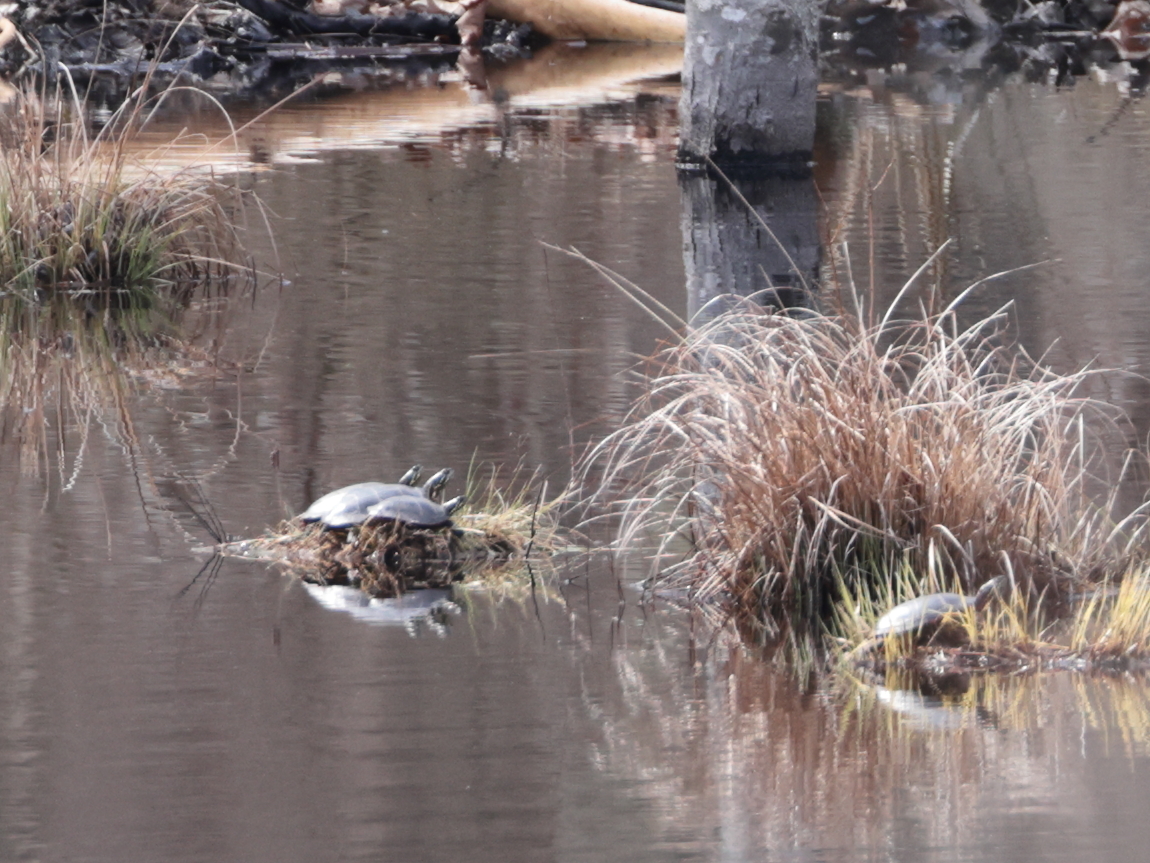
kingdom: Animalia
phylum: Chordata
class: Testudines
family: Emydidae
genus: Chrysemys
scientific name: Chrysemys picta
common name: Painted turtle
